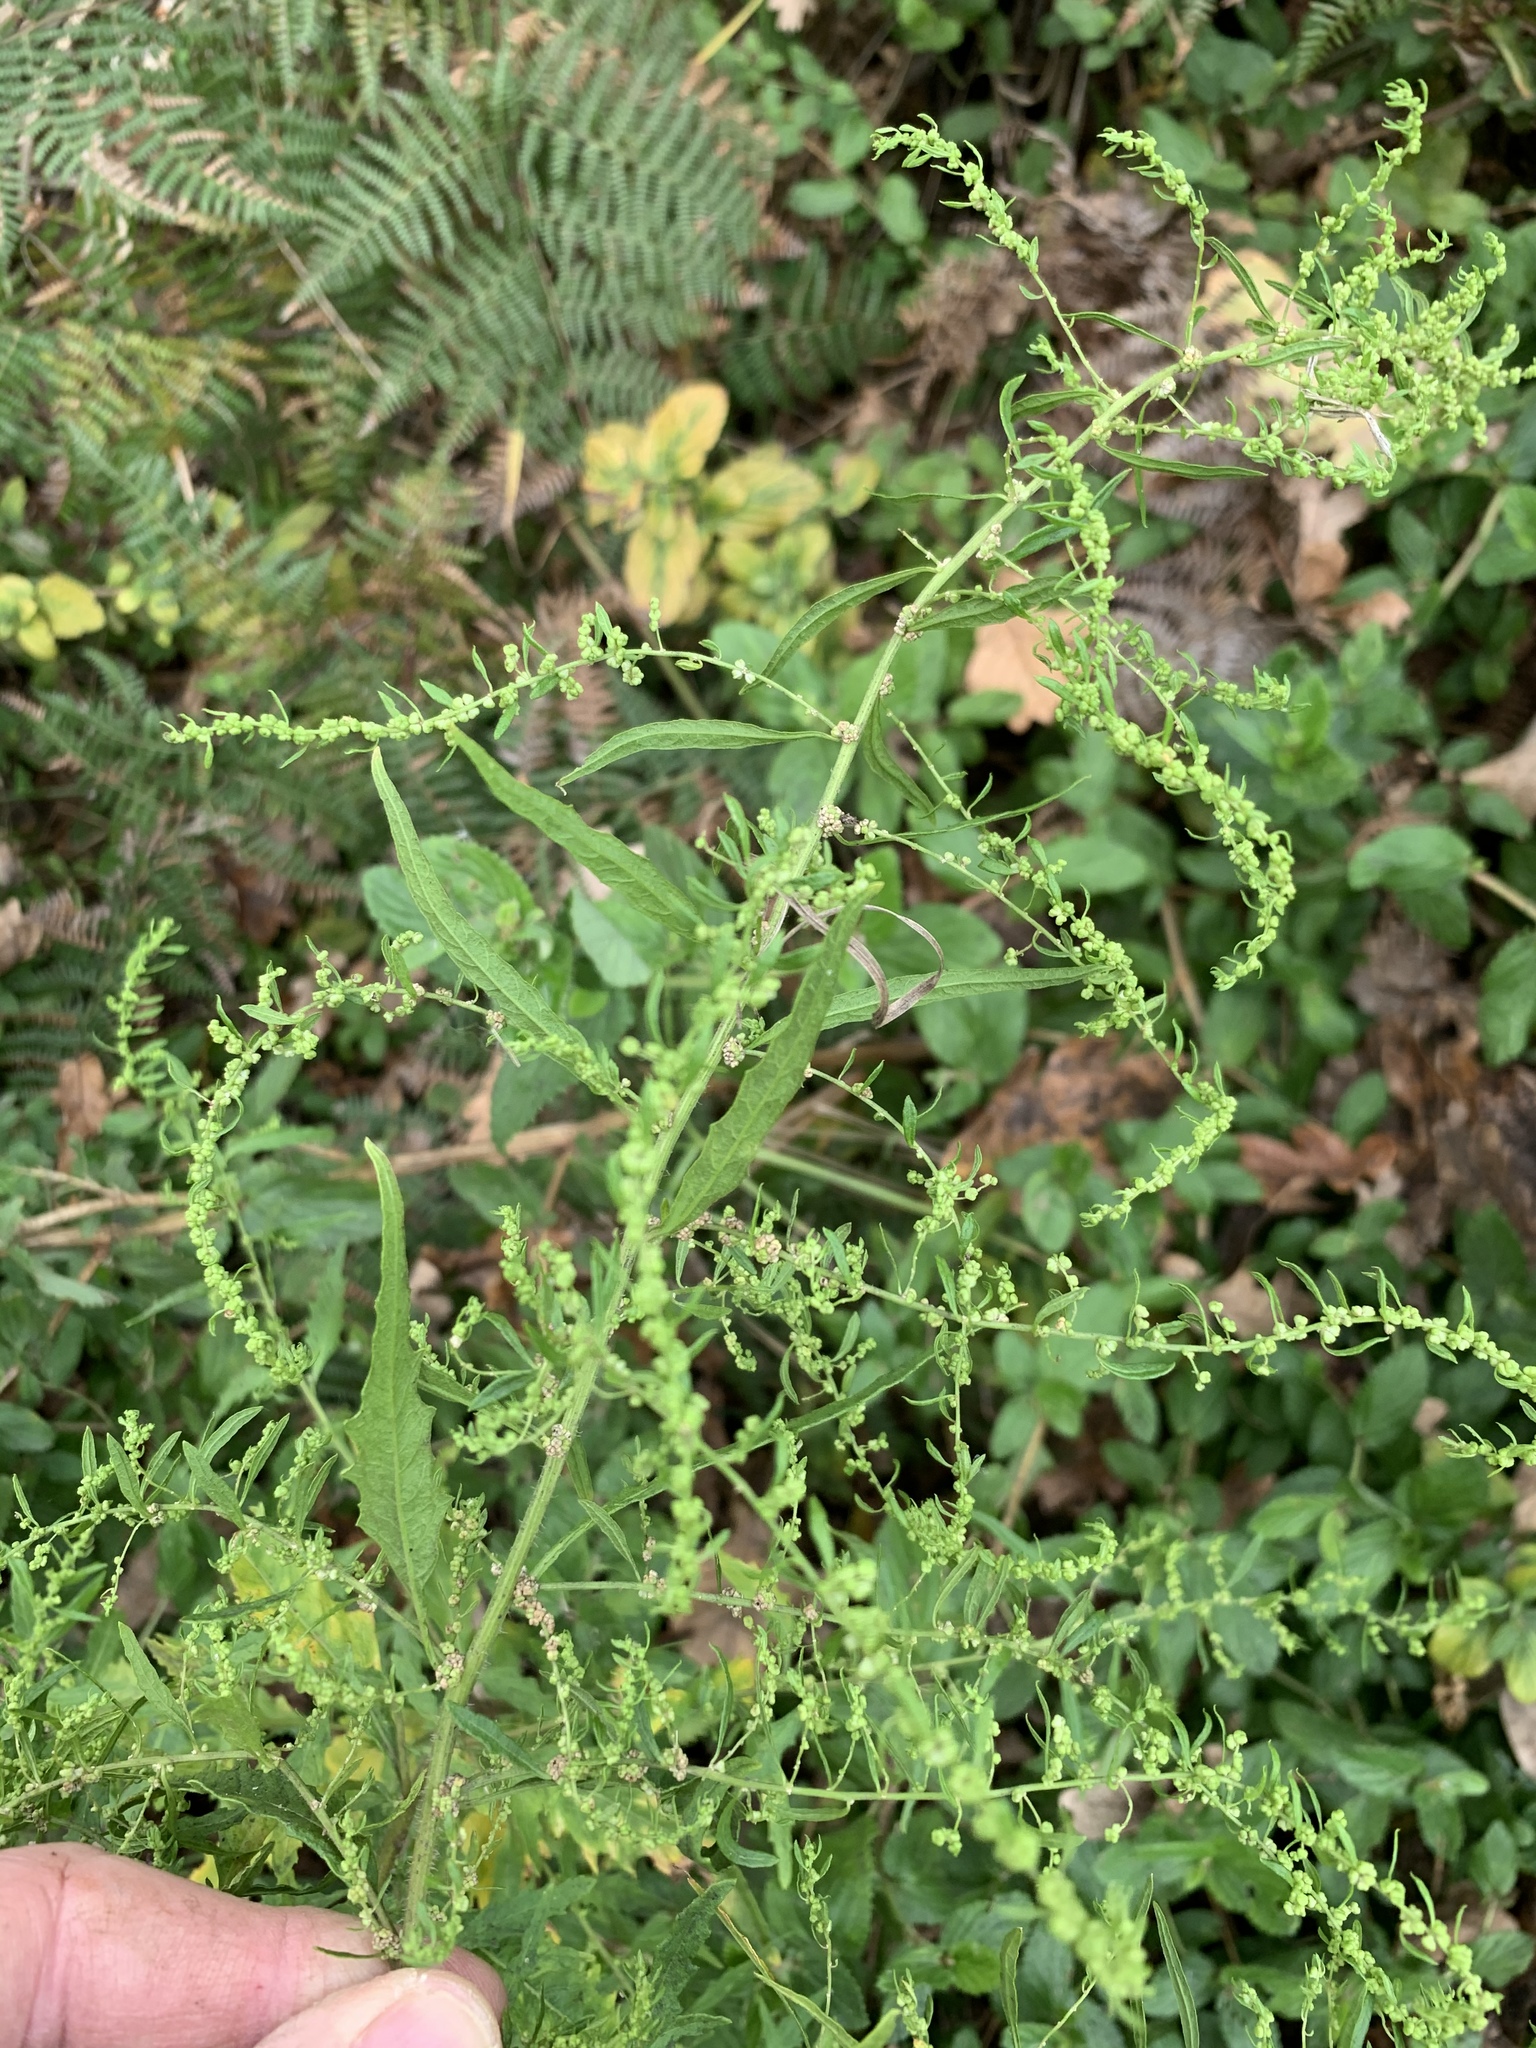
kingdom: Plantae
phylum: Tracheophyta
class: Magnoliopsida
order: Caryophyllales
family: Amaranthaceae
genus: Dysphania
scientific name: Dysphania ambrosioides
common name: Wormseed
